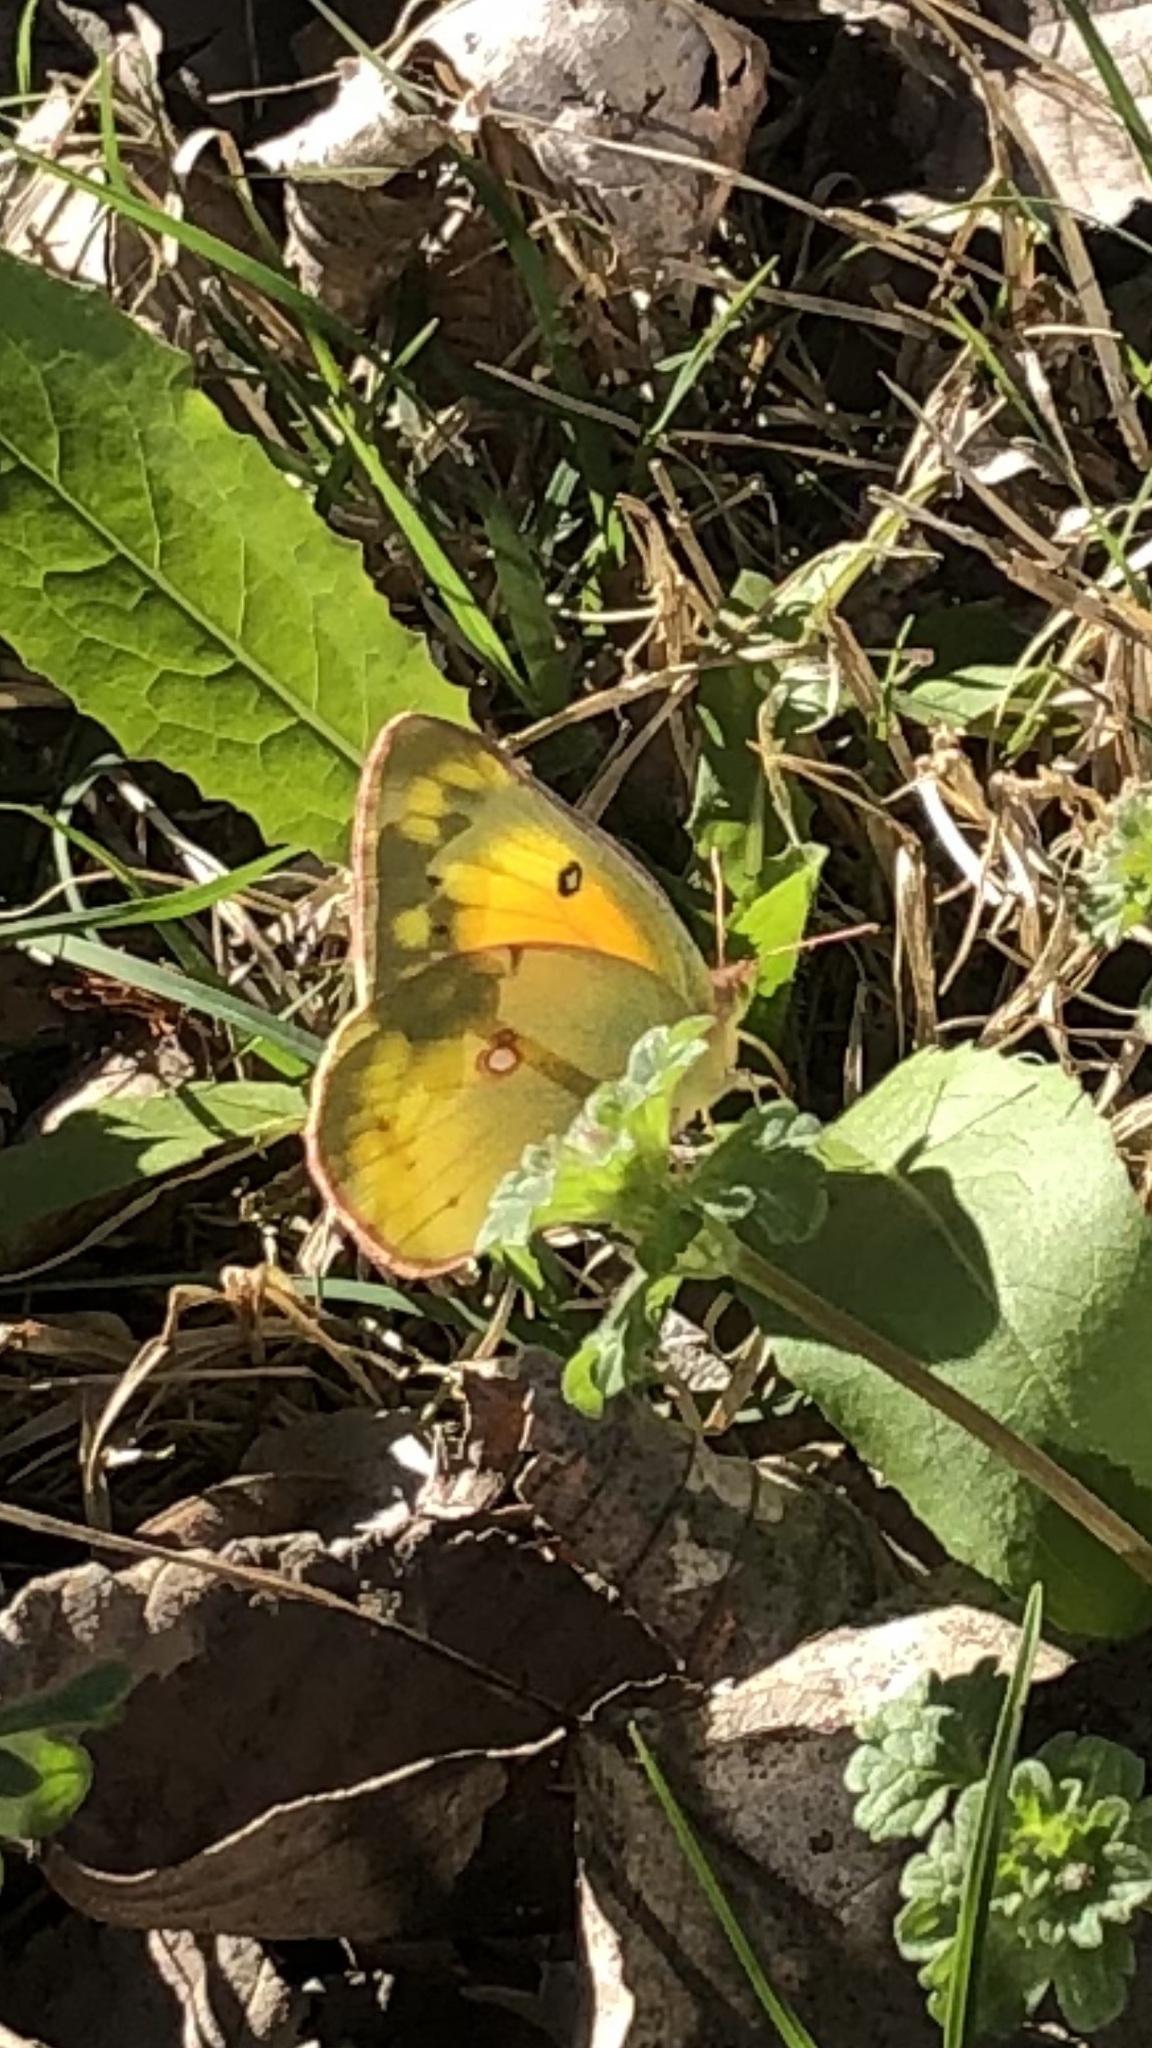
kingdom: Animalia
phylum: Arthropoda
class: Insecta
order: Lepidoptera
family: Pieridae
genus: Colias
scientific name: Colias eurytheme
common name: Alfalfa butterfly
